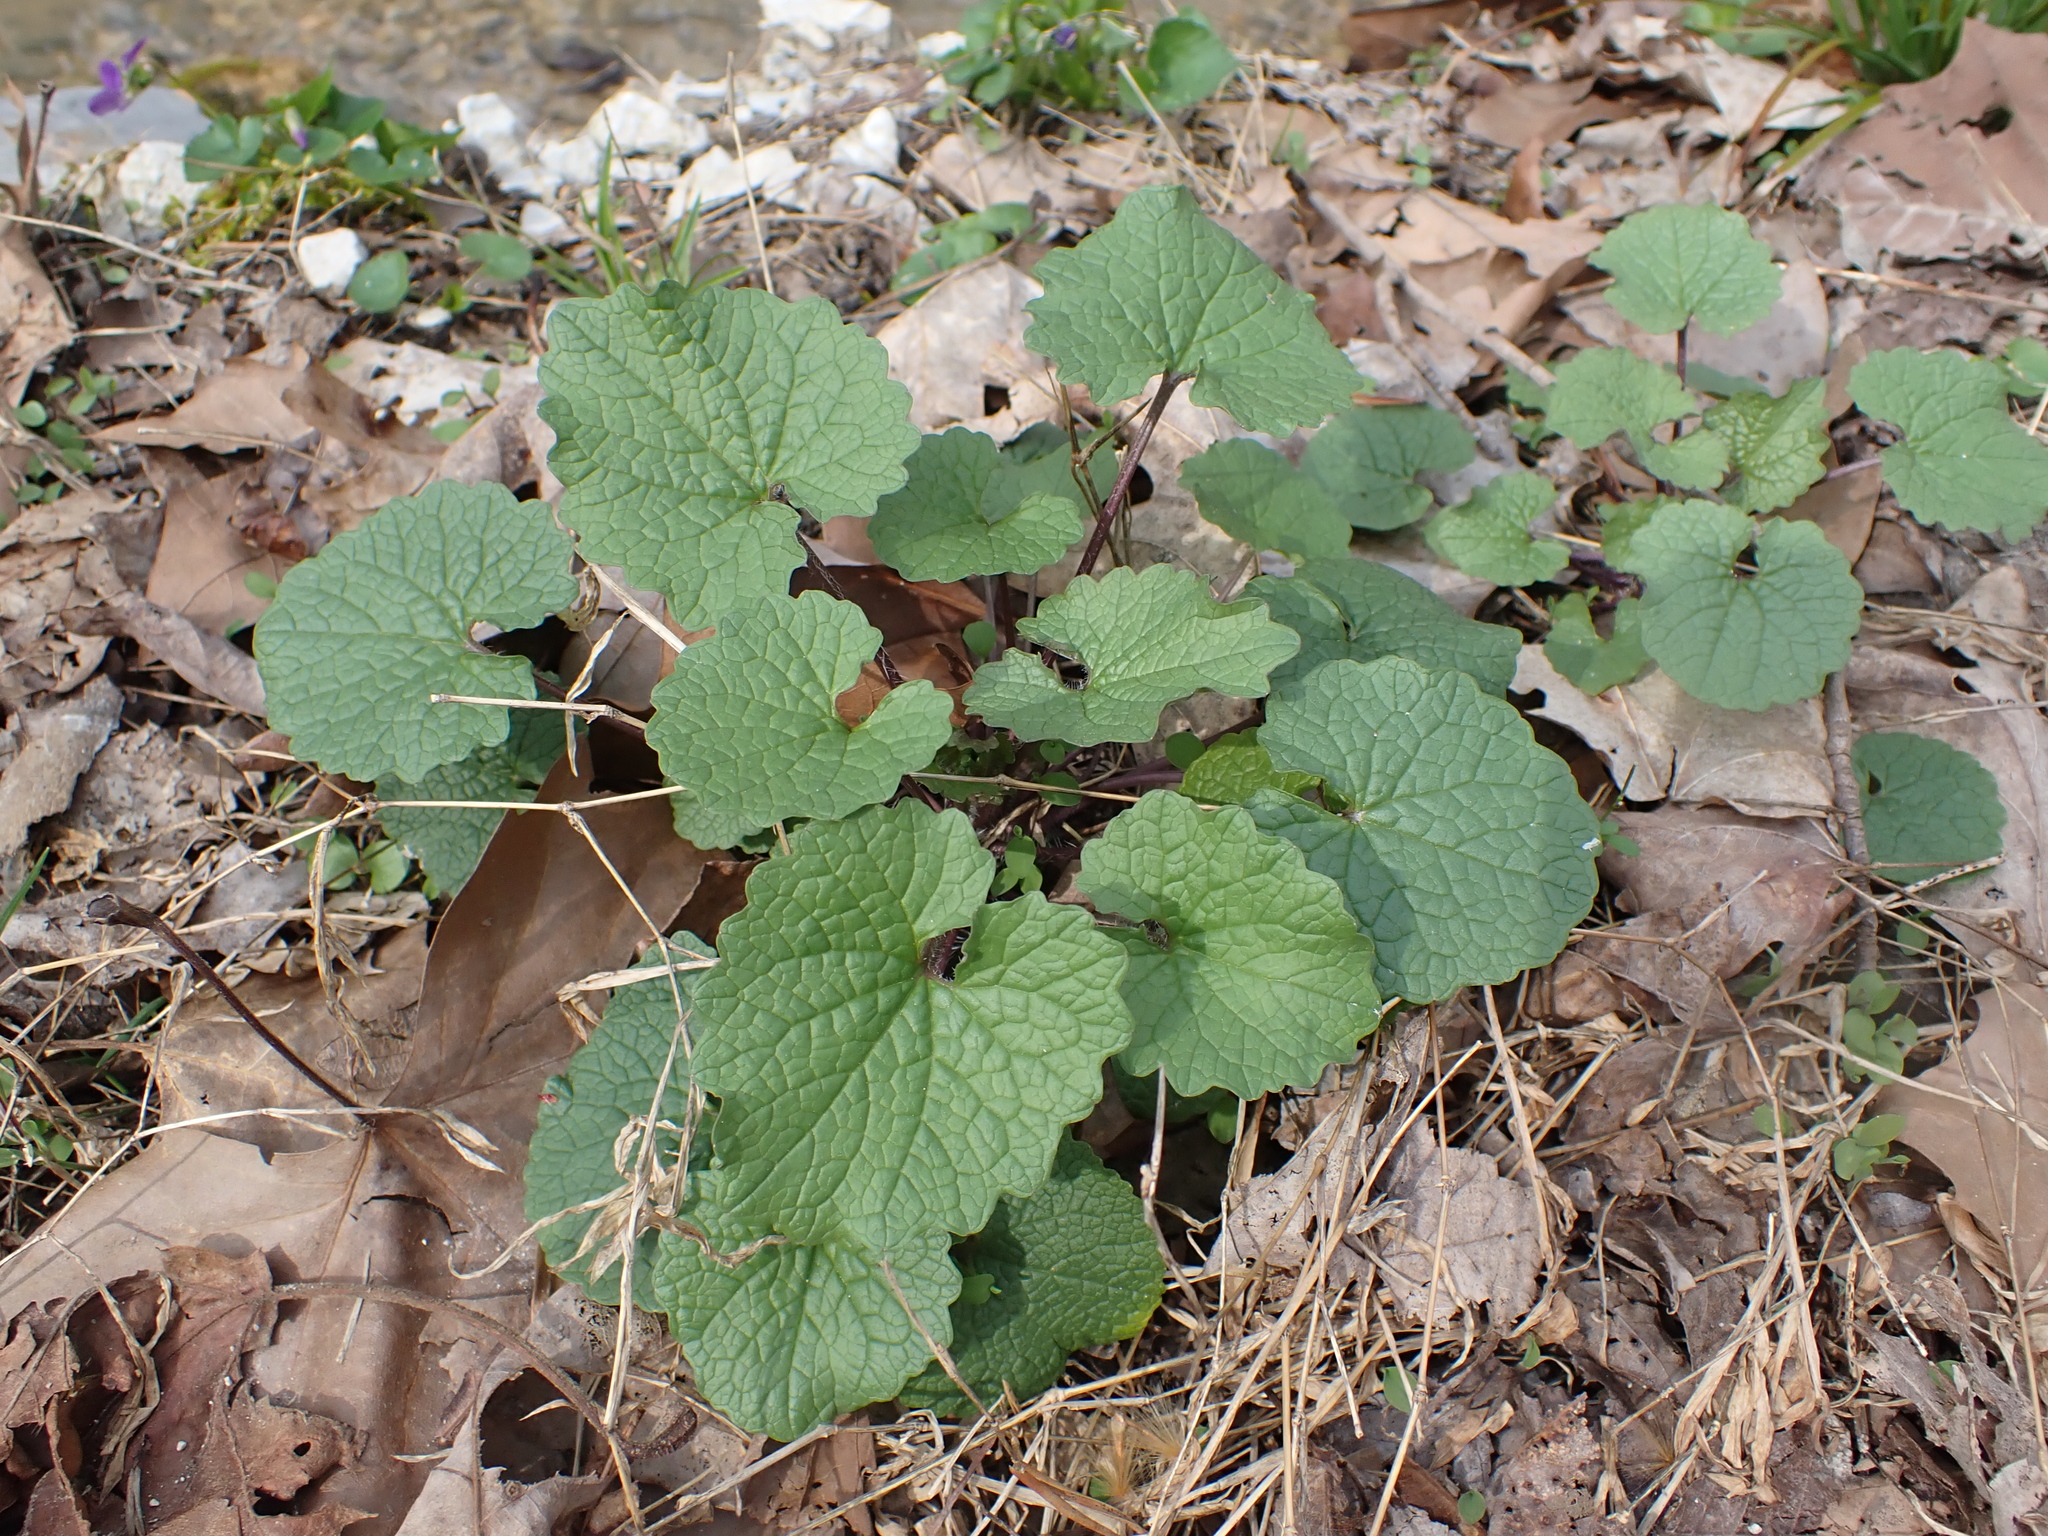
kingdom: Plantae
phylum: Tracheophyta
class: Magnoliopsida
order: Brassicales
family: Brassicaceae
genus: Alliaria
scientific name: Alliaria petiolata
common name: Garlic mustard
